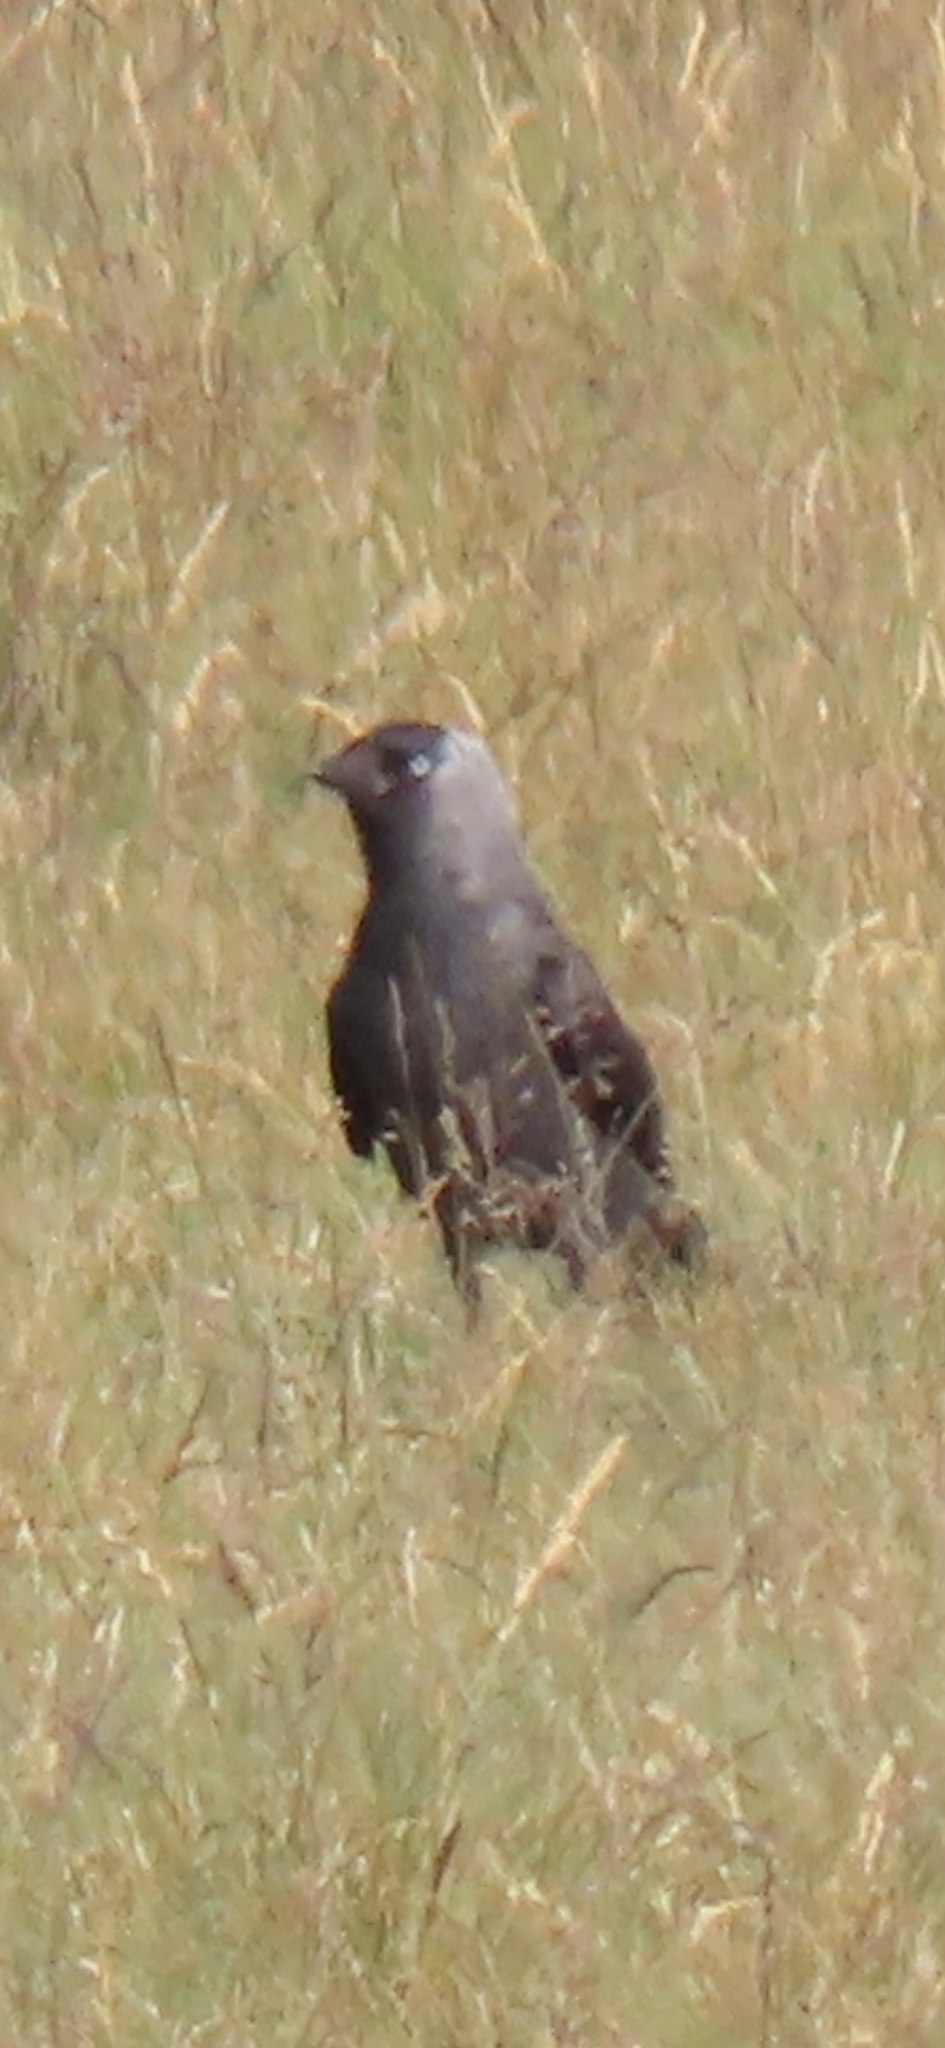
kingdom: Animalia
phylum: Chordata
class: Aves
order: Passeriformes
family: Corvidae
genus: Coloeus
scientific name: Coloeus monedula
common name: Western jackdaw
